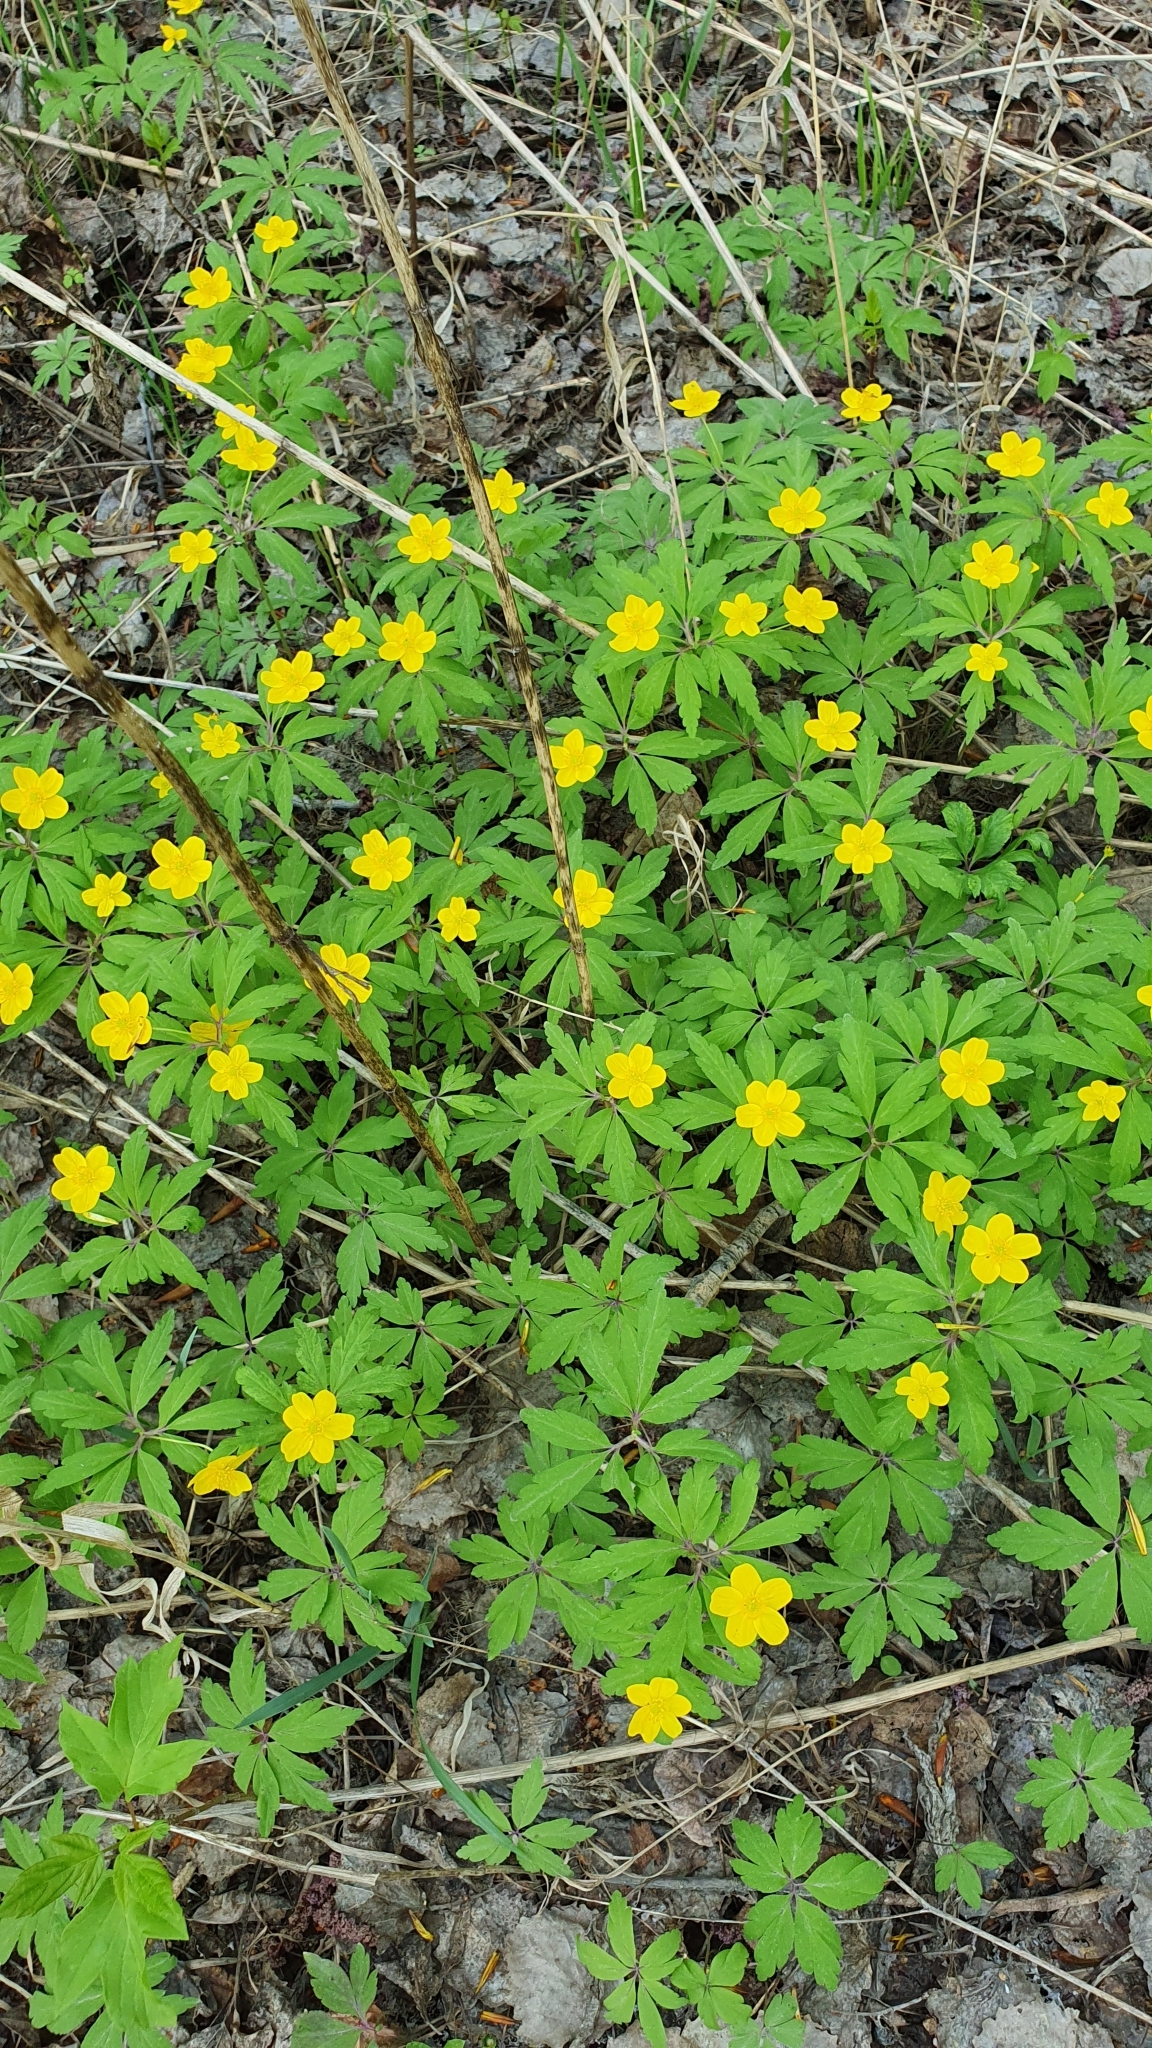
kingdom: Plantae
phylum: Tracheophyta
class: Magnoliopsida
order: Ranunculales
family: Ranunculaceae
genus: Anemone
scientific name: Anemone ranunculoides
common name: Yellow anemone
